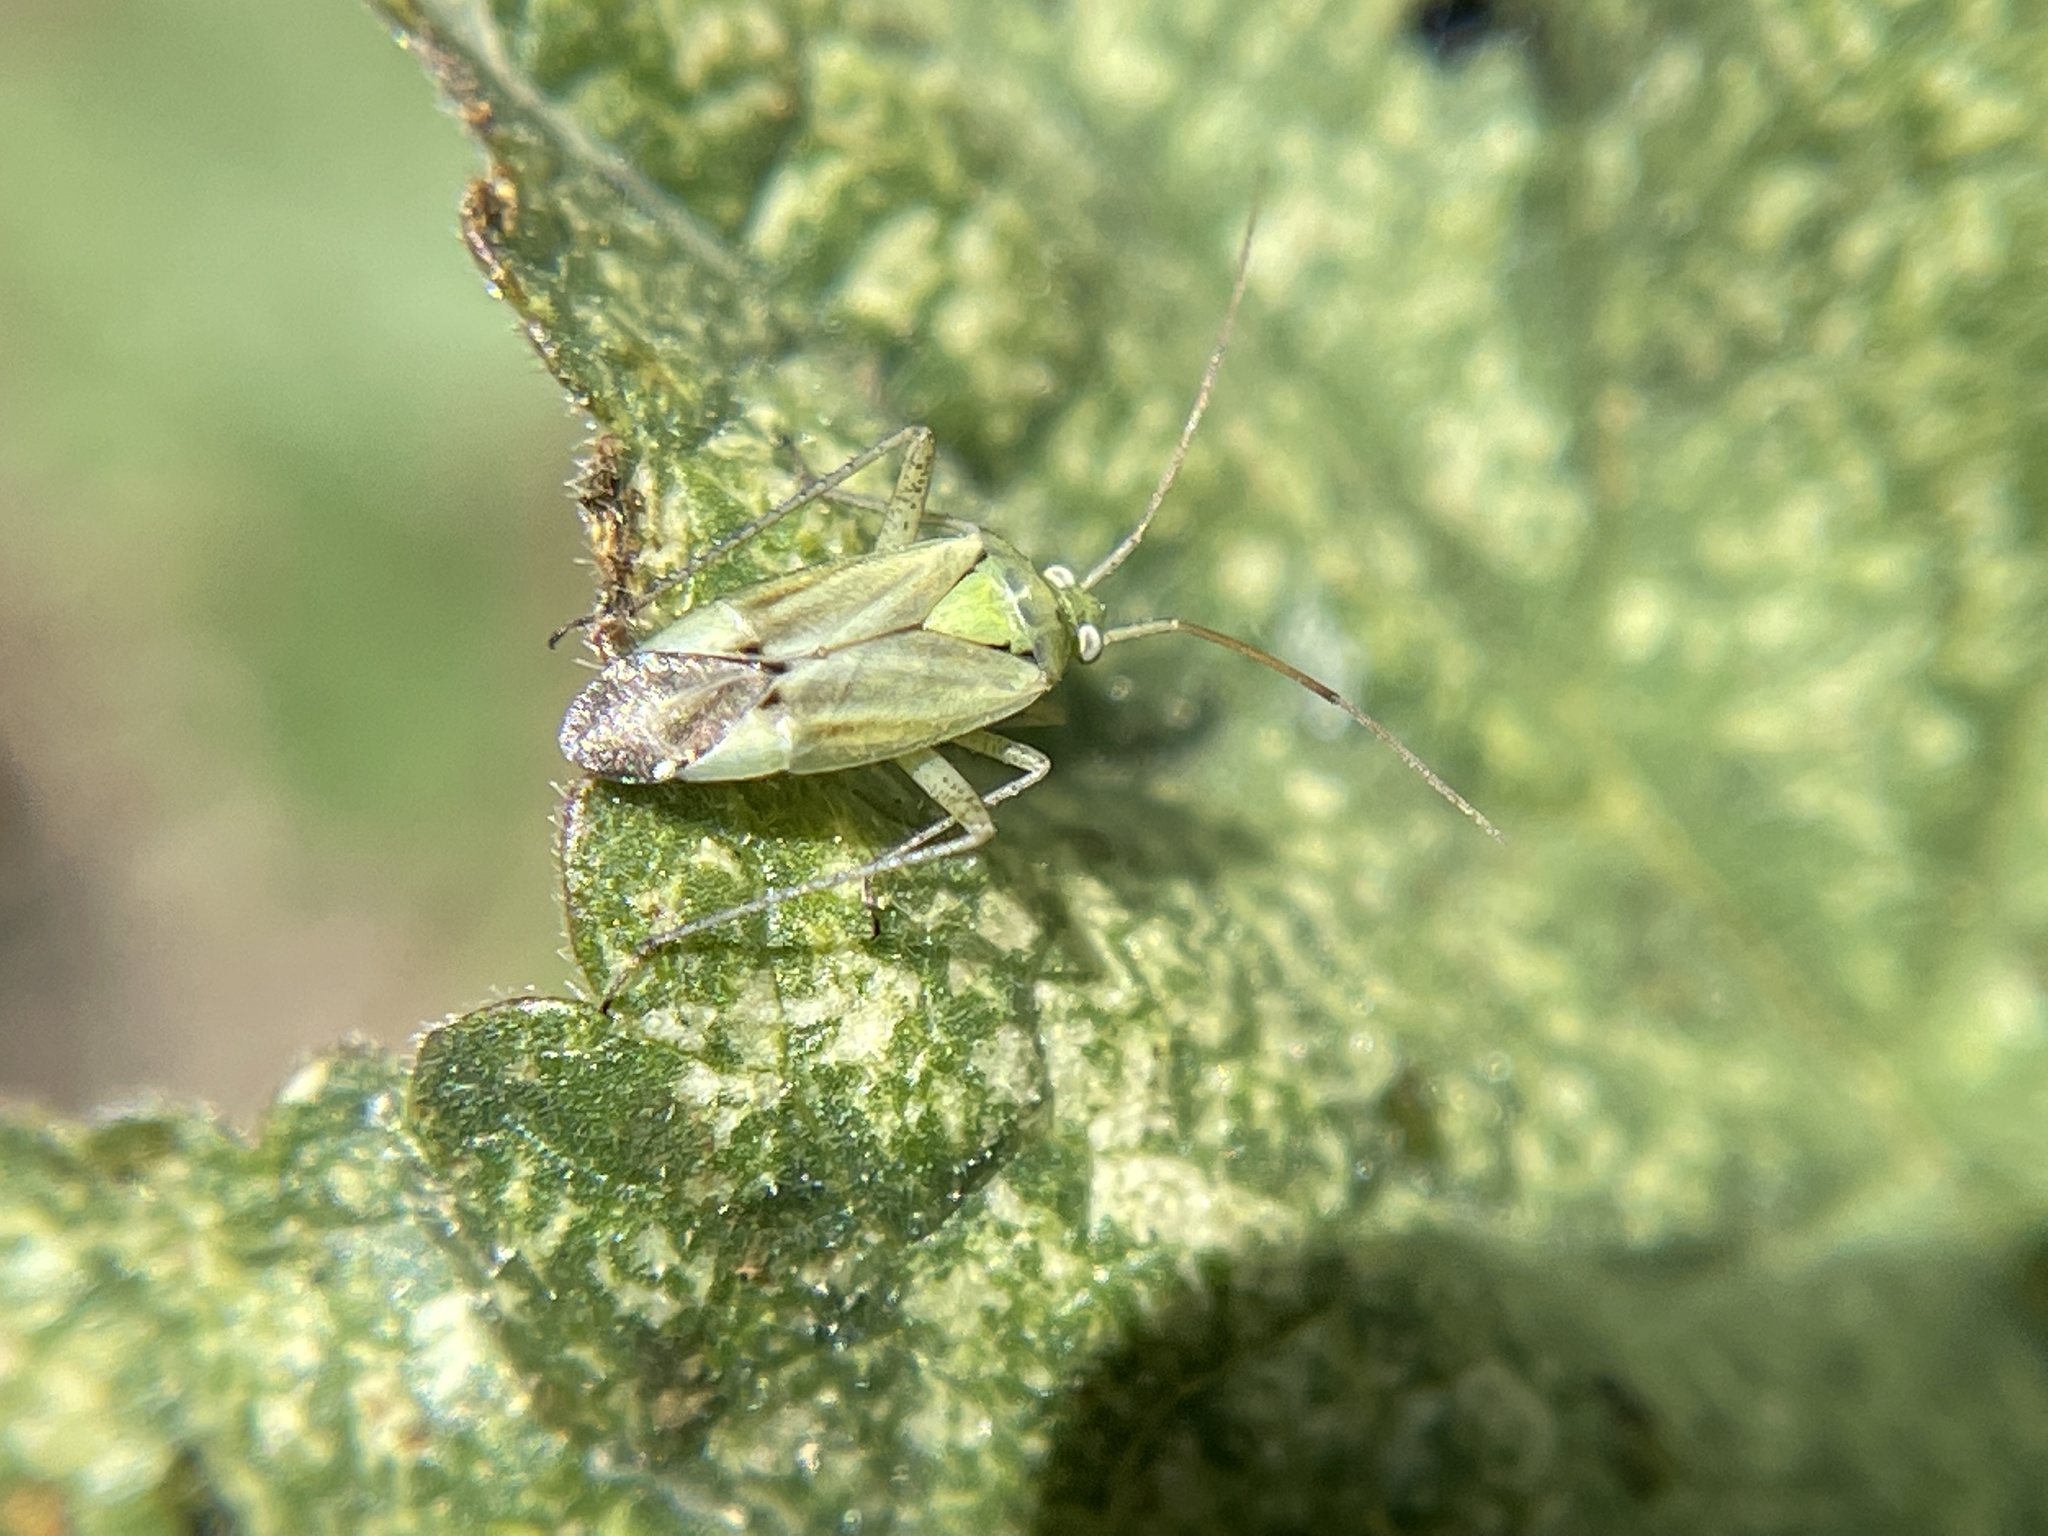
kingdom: Animalia
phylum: Arthropoda
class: Insecta
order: Hemiptera
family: Miridae
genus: Closterotomus
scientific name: Closterotomus norvegicus
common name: Plant bug
